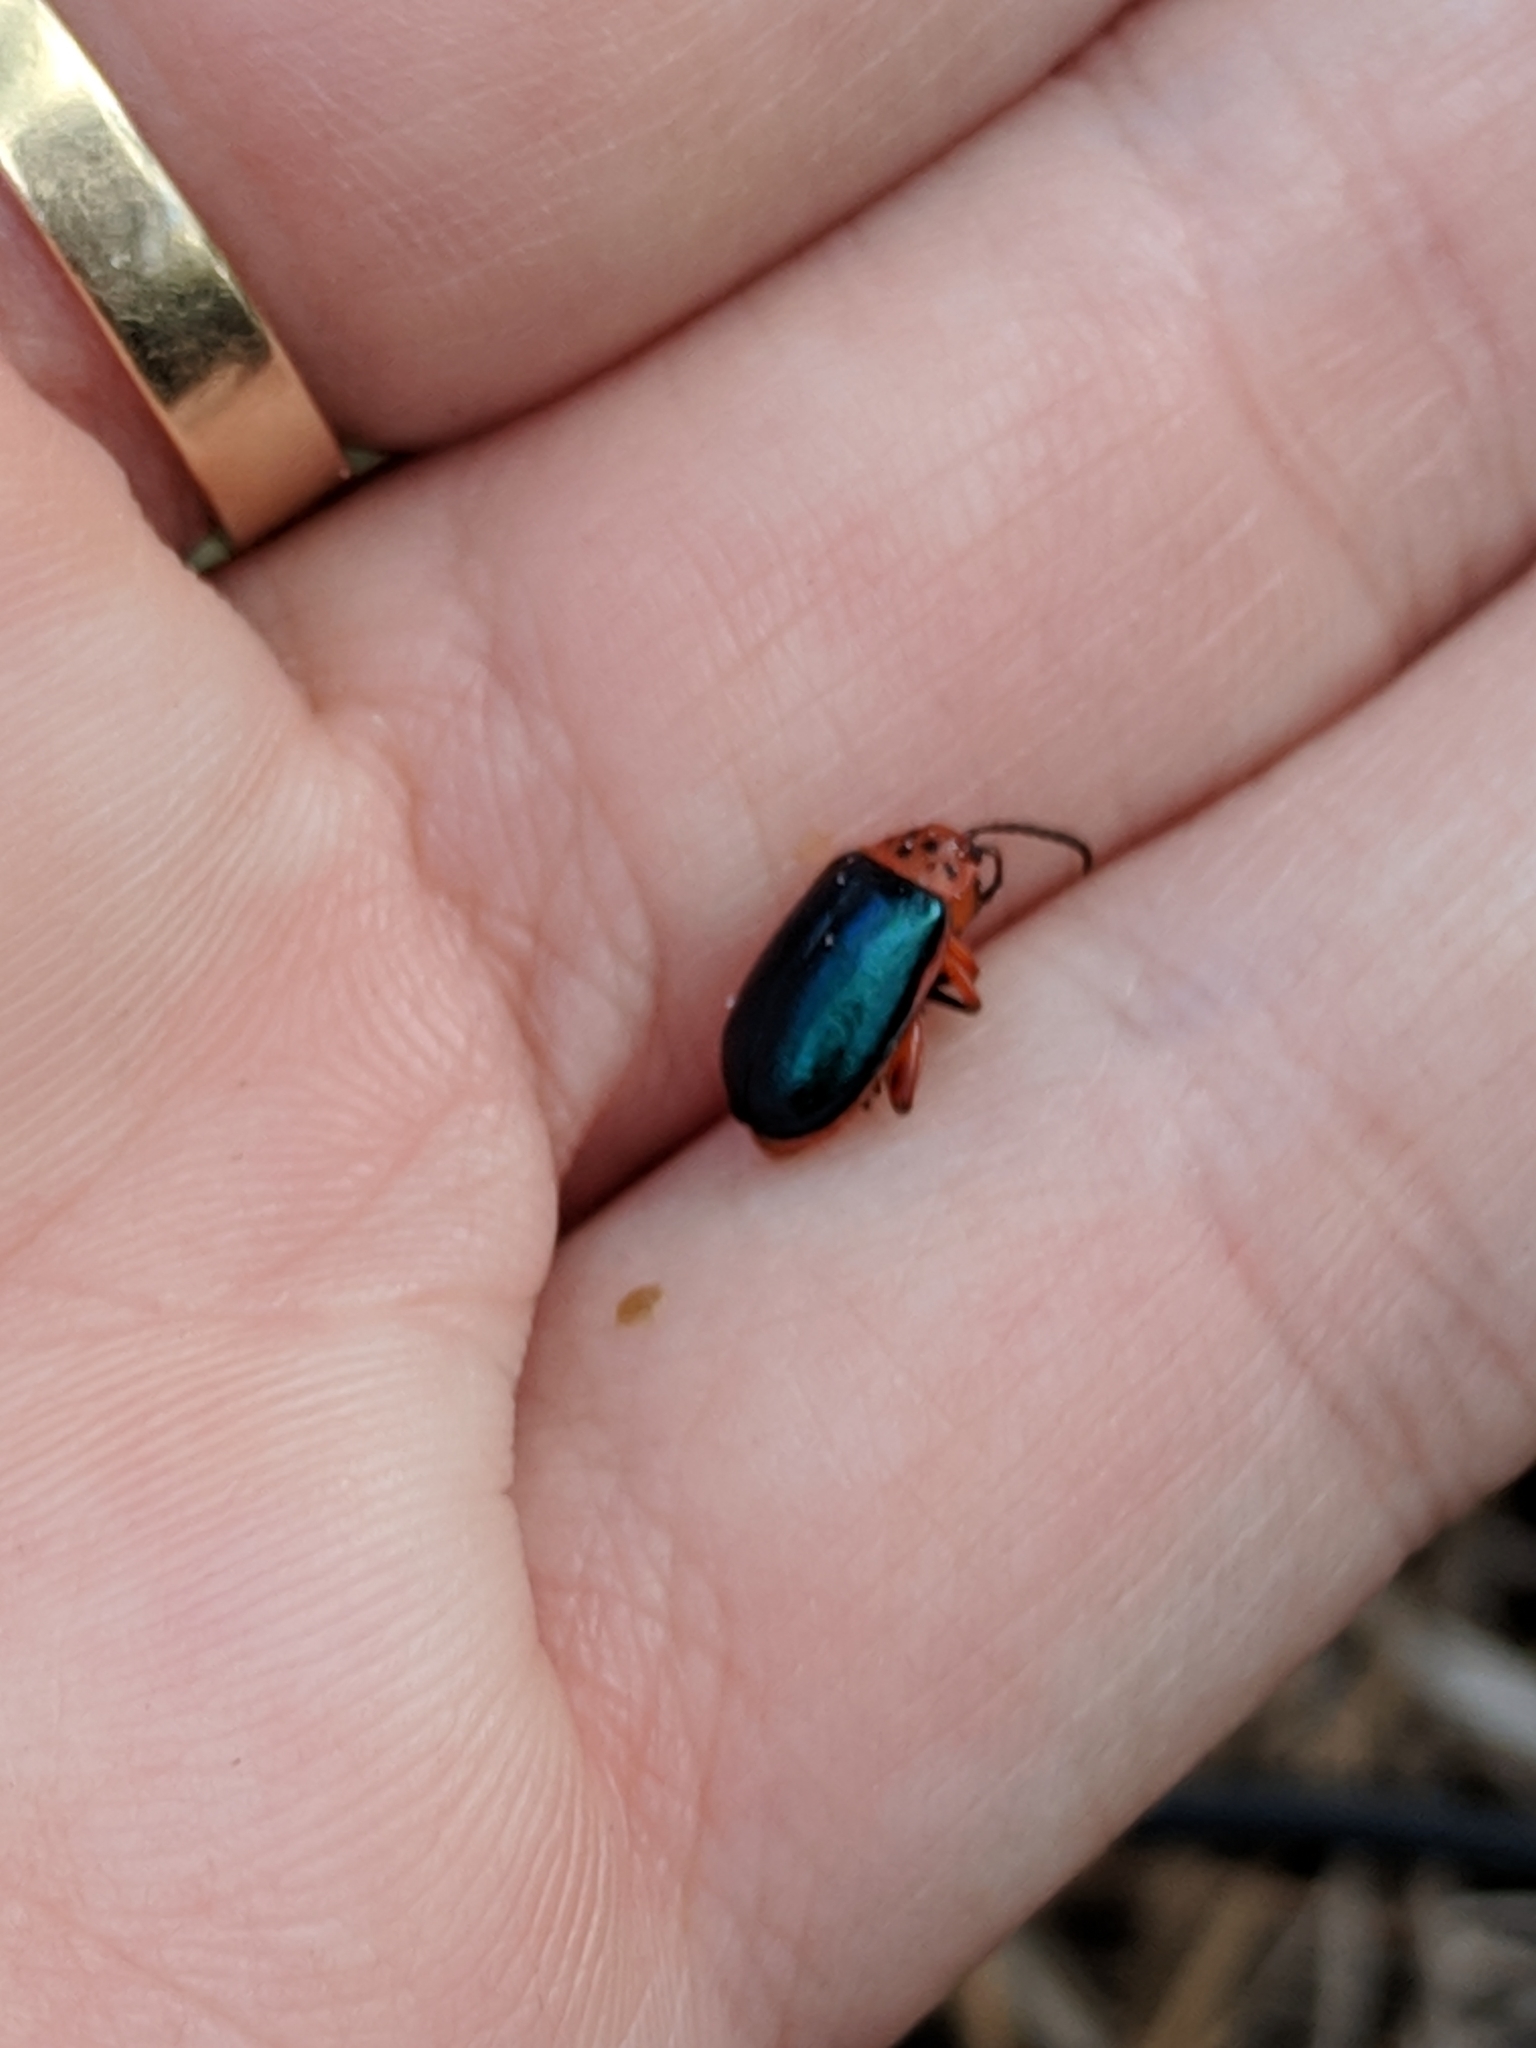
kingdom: Animalia
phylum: Arthropoda
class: Insecta
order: Coleoptera
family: Chrysomelidae
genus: Kuschelina
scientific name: Kuschelina thoracica
